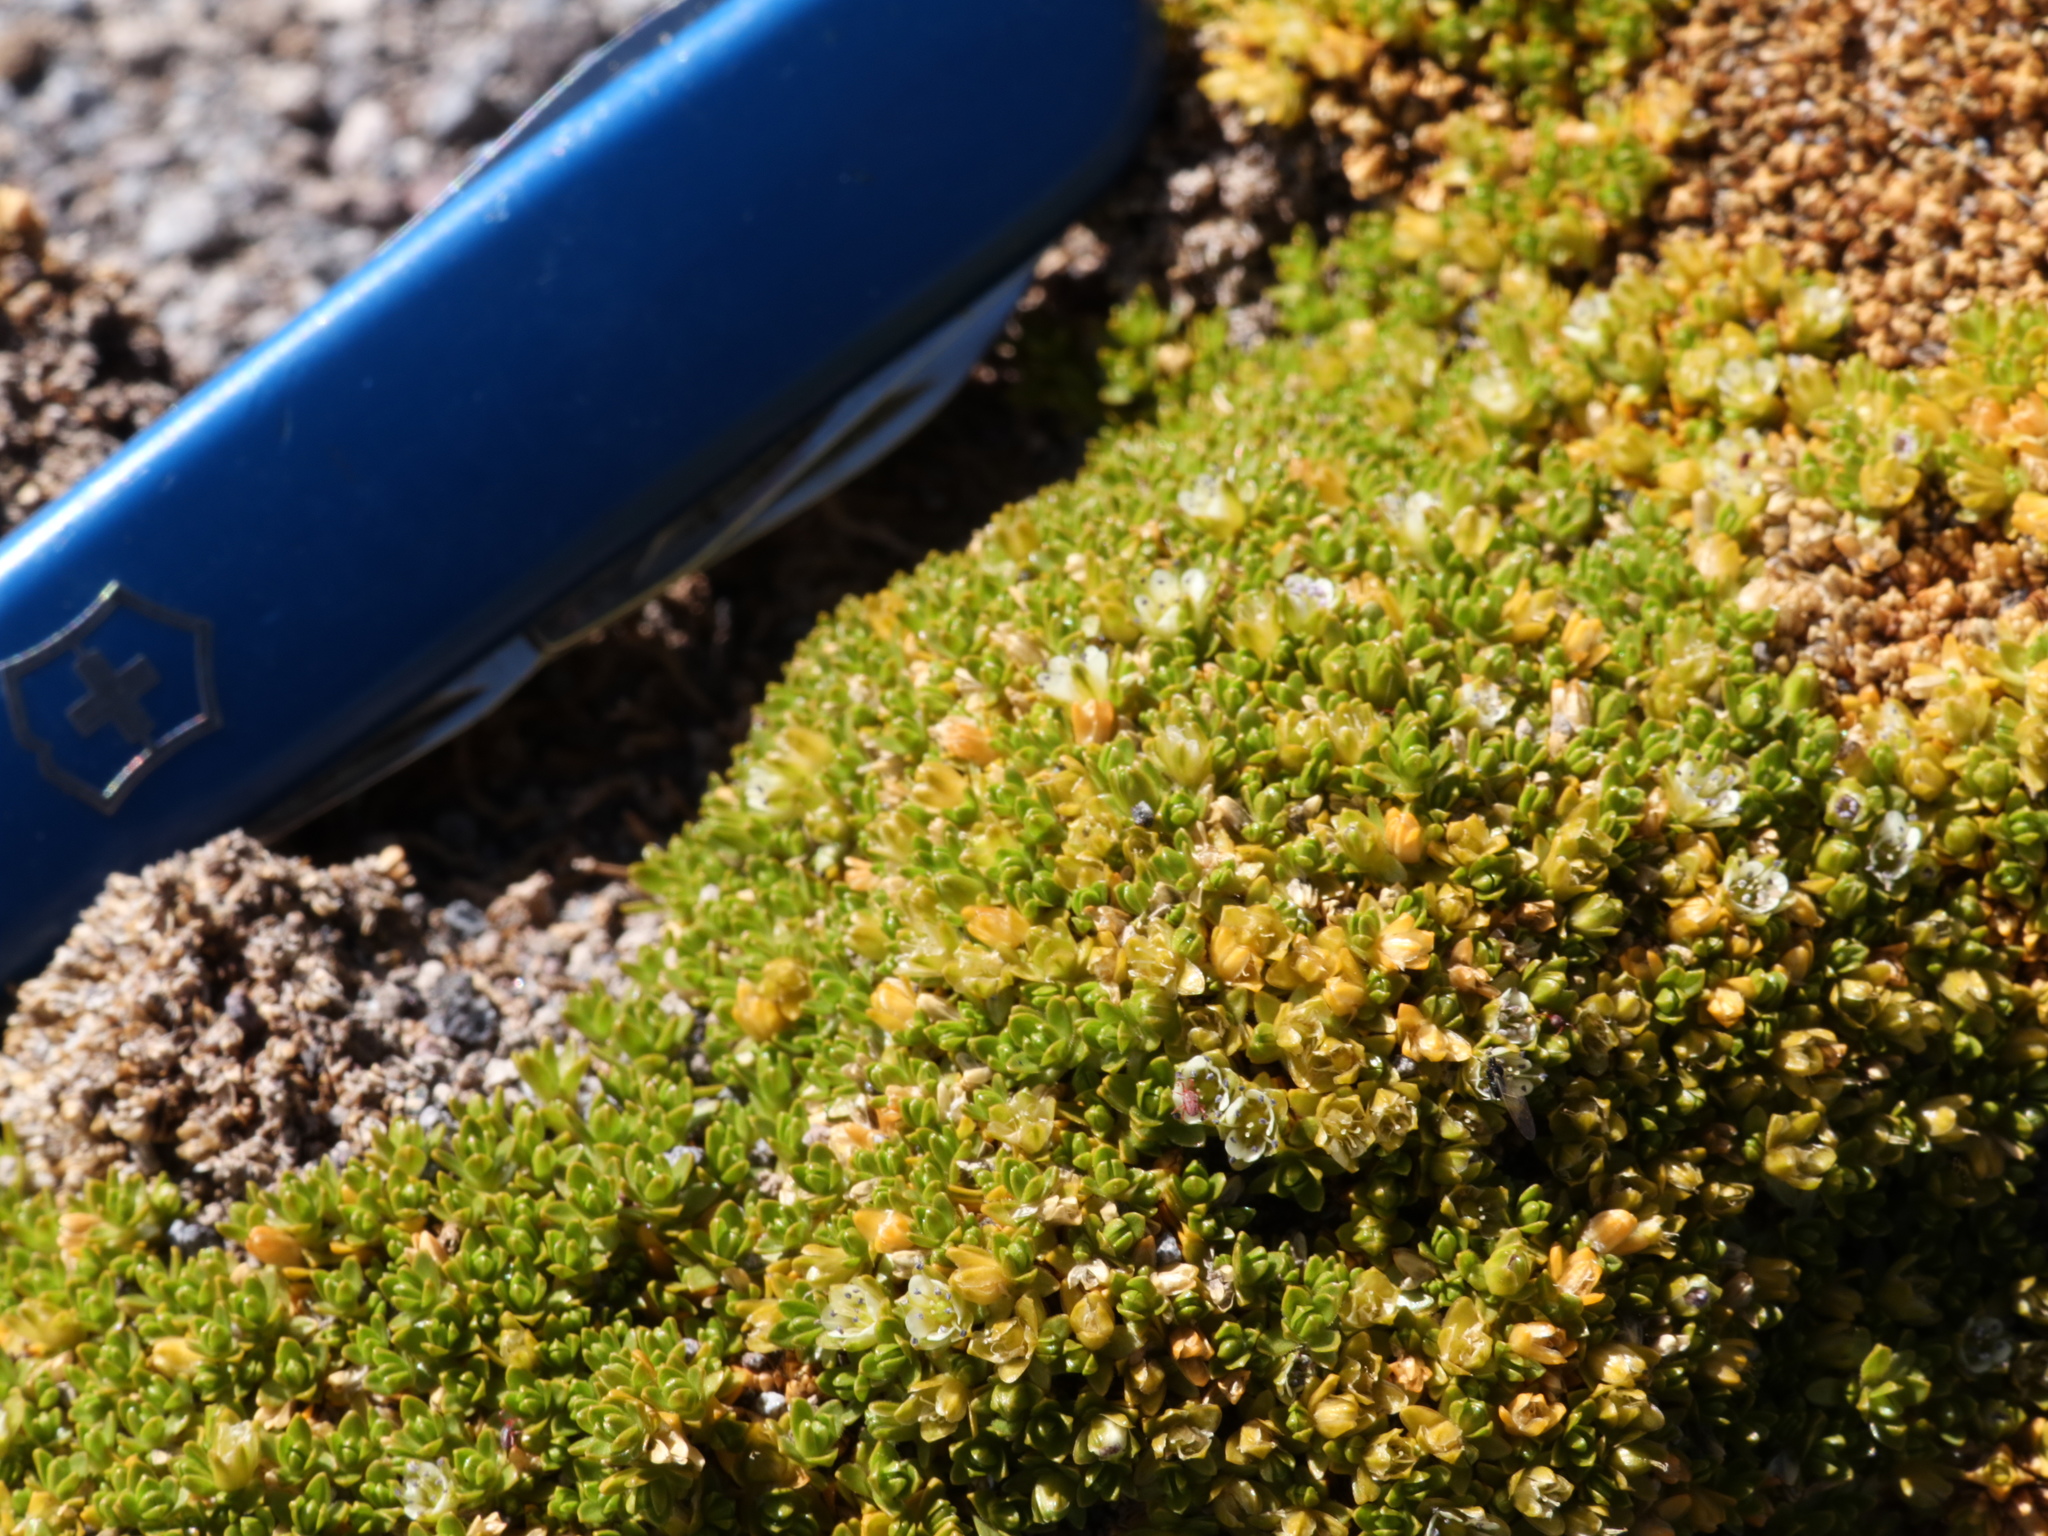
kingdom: Plantae
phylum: Tracheophyta
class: Magnoliopsida
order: Caryophyllales
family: Caryophyllaceae
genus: Arenaria
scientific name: Arenaria bryoides
